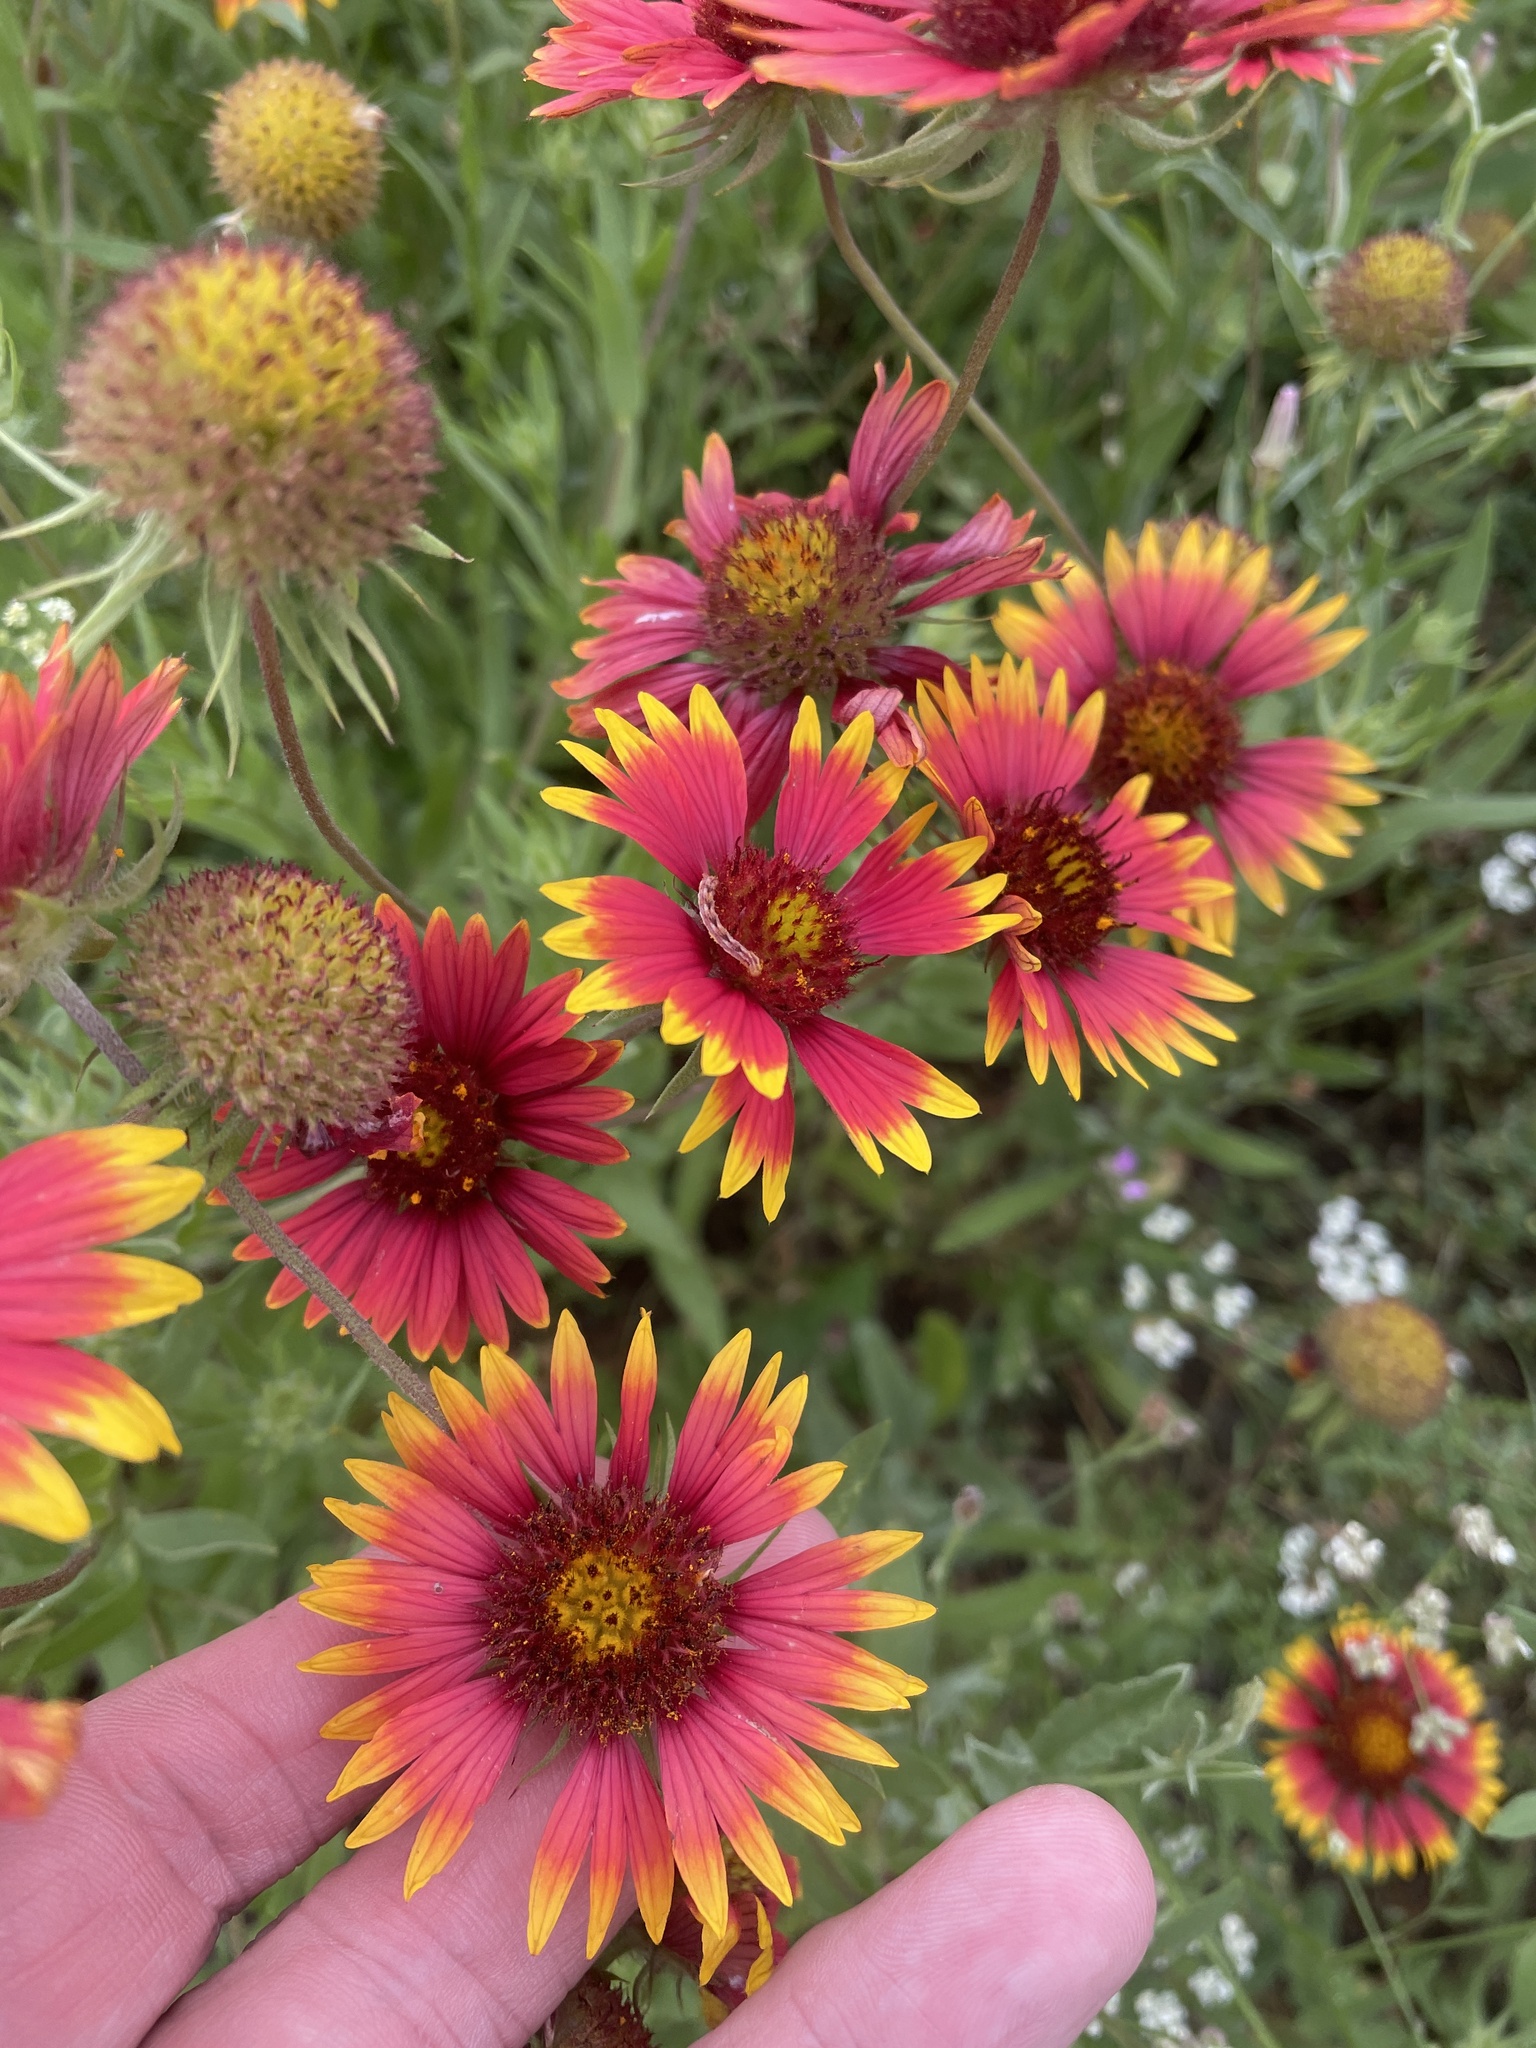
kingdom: Plantae
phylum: Tracheophyta
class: Magnoliopsida
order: Asterales
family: Asteraceae
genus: Gaillardia
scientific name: Gaillardia pulchella
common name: Firewheel
